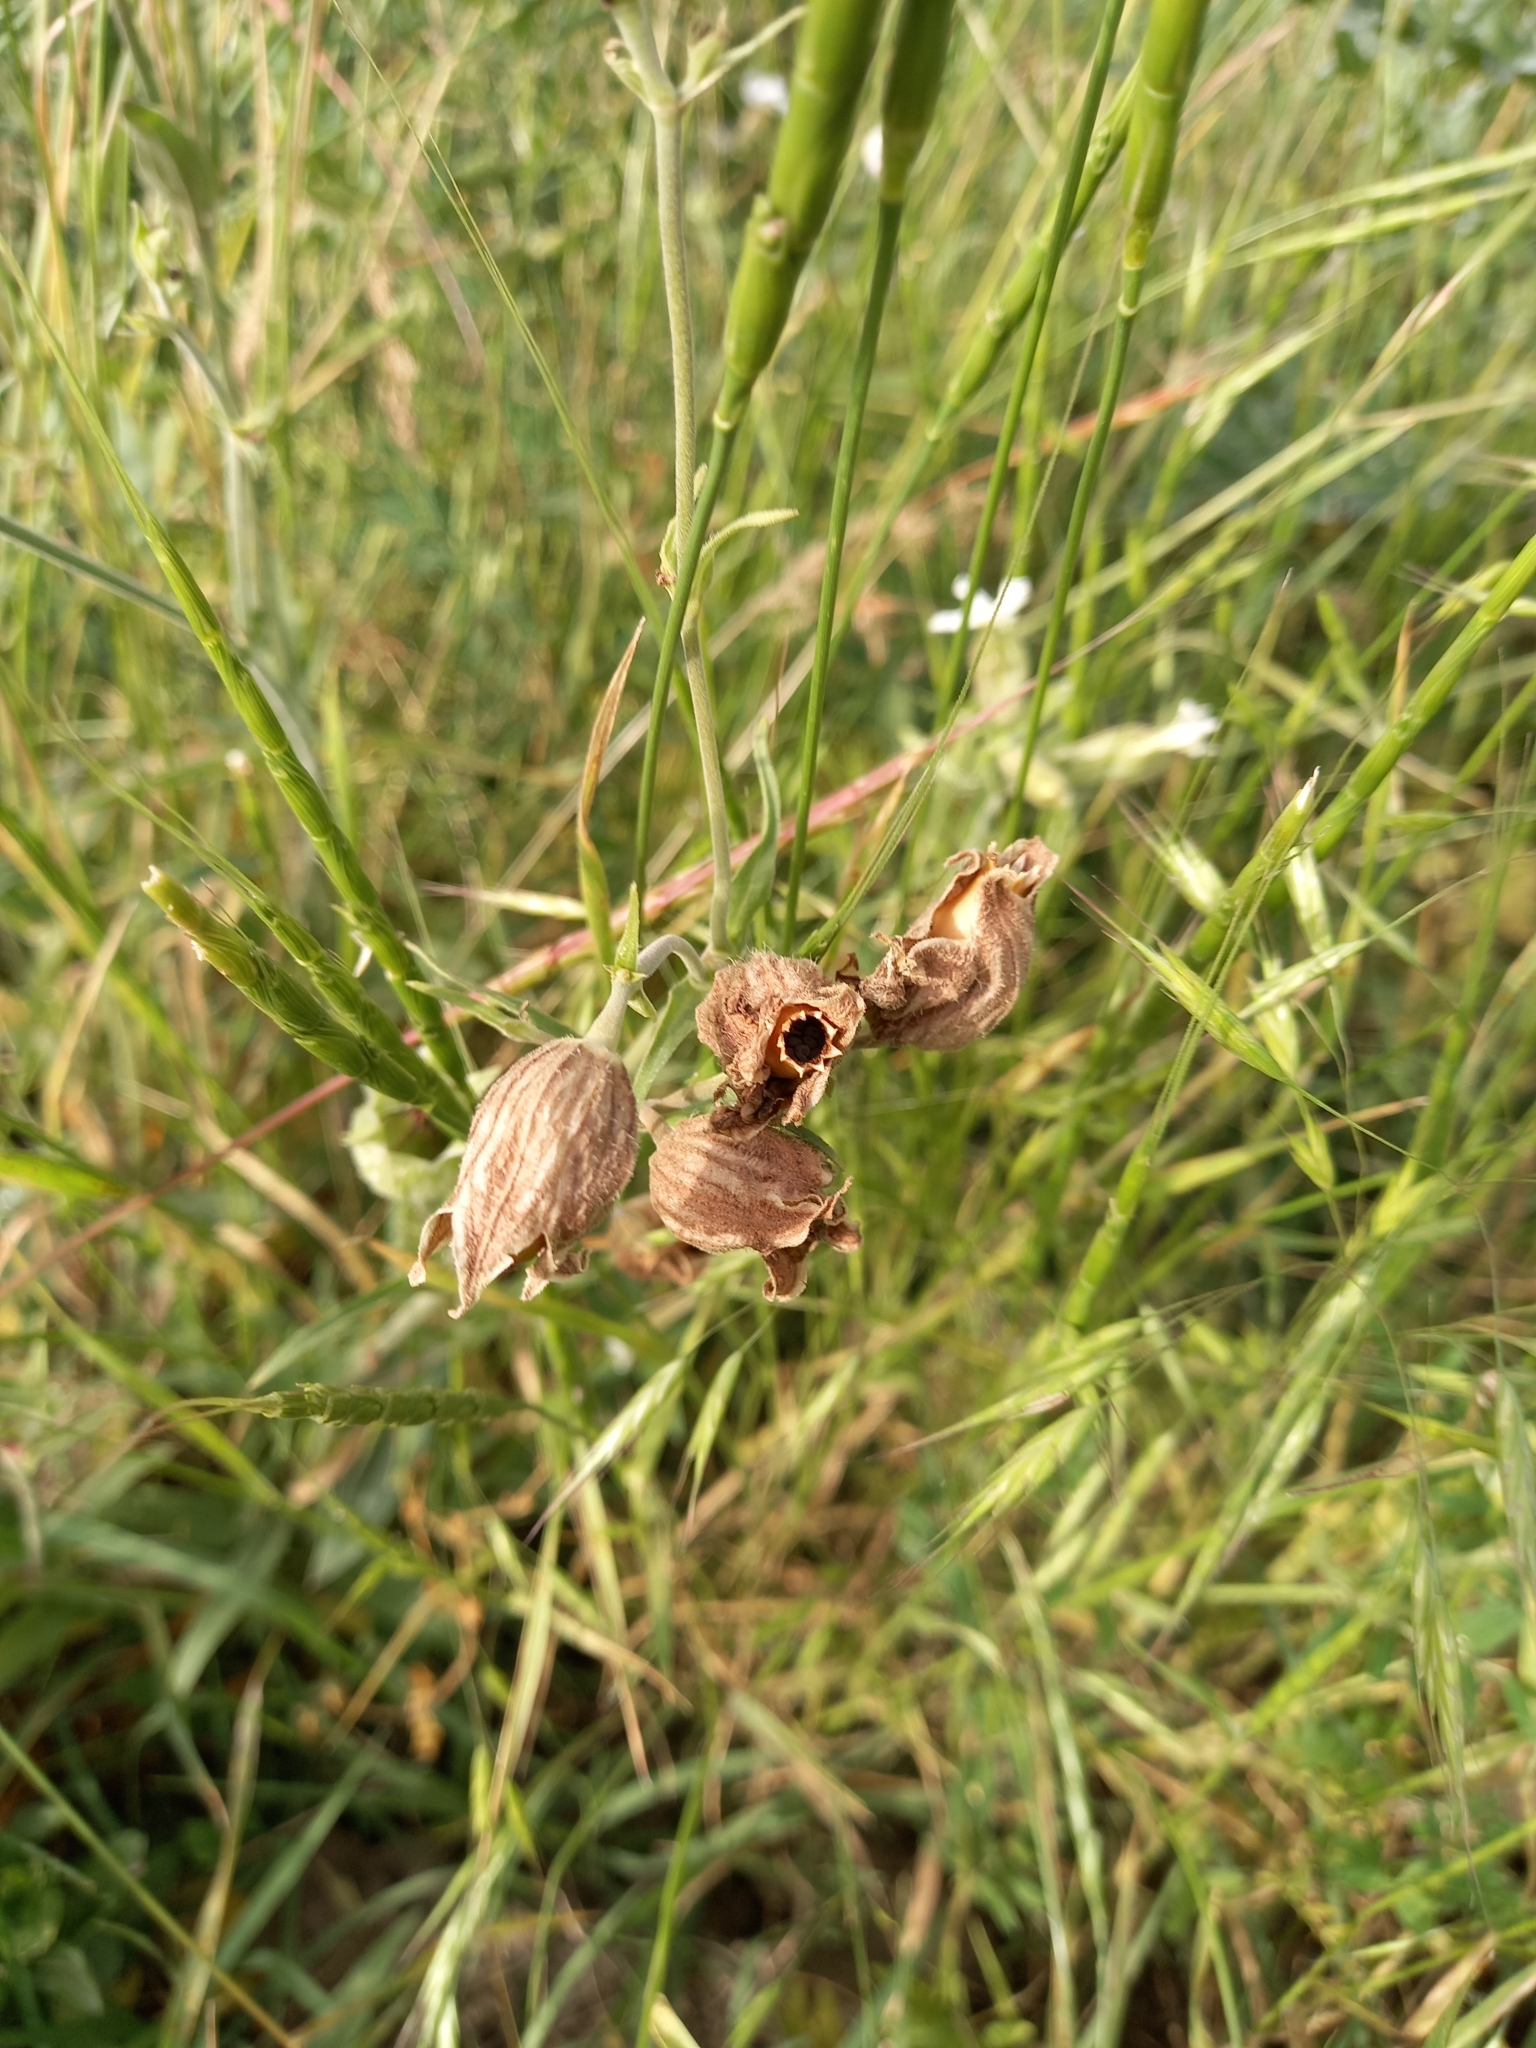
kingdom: Plantae
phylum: Tracheophyta
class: Magnoliopsida
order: Caryophyllales
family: Caryophyllaceae
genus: Silene
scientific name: Silene latifolia
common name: White campion
